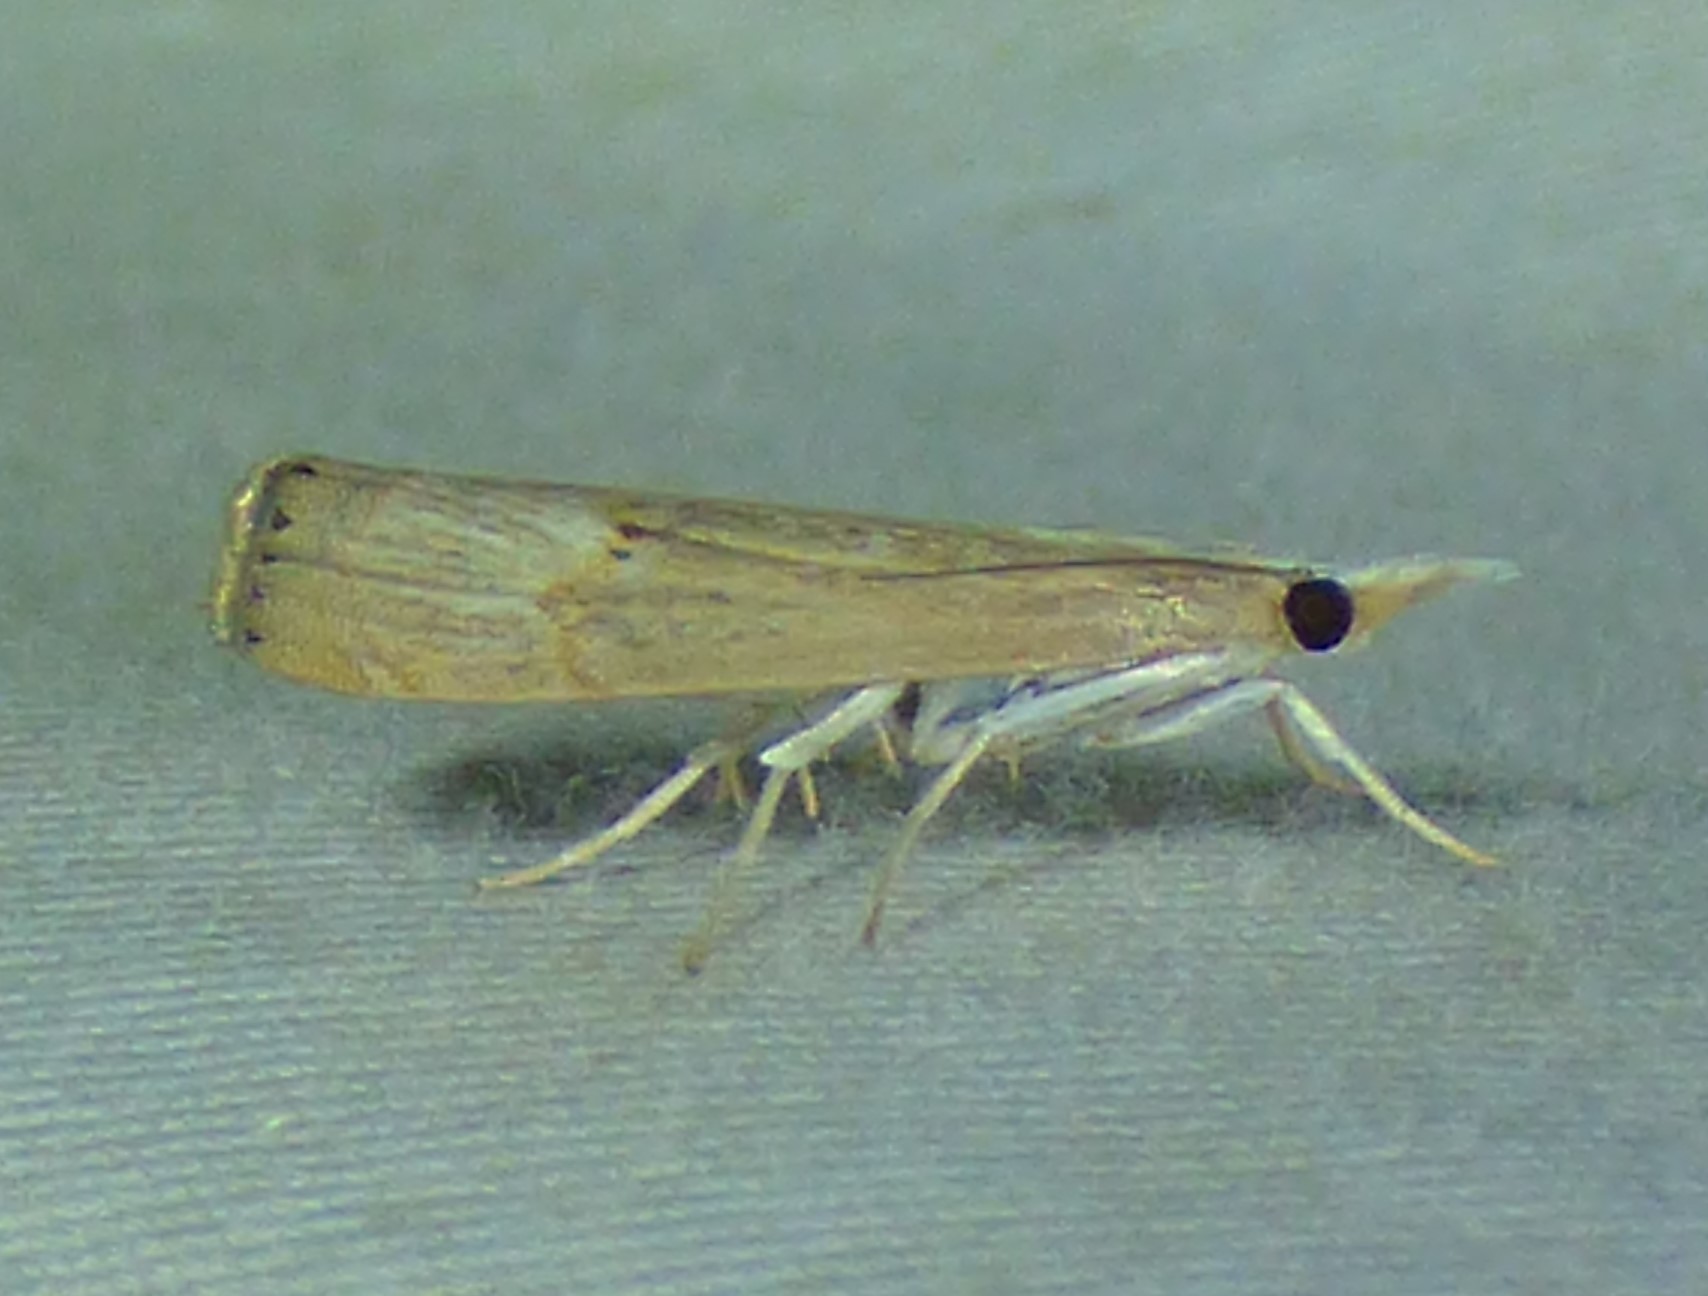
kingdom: Animalia
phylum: Arthropoda
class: Insecta
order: Lepidoptera
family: Crambidae
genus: Parapediasia
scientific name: Parapediasia teterellus
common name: Bluegrass webworm moth
